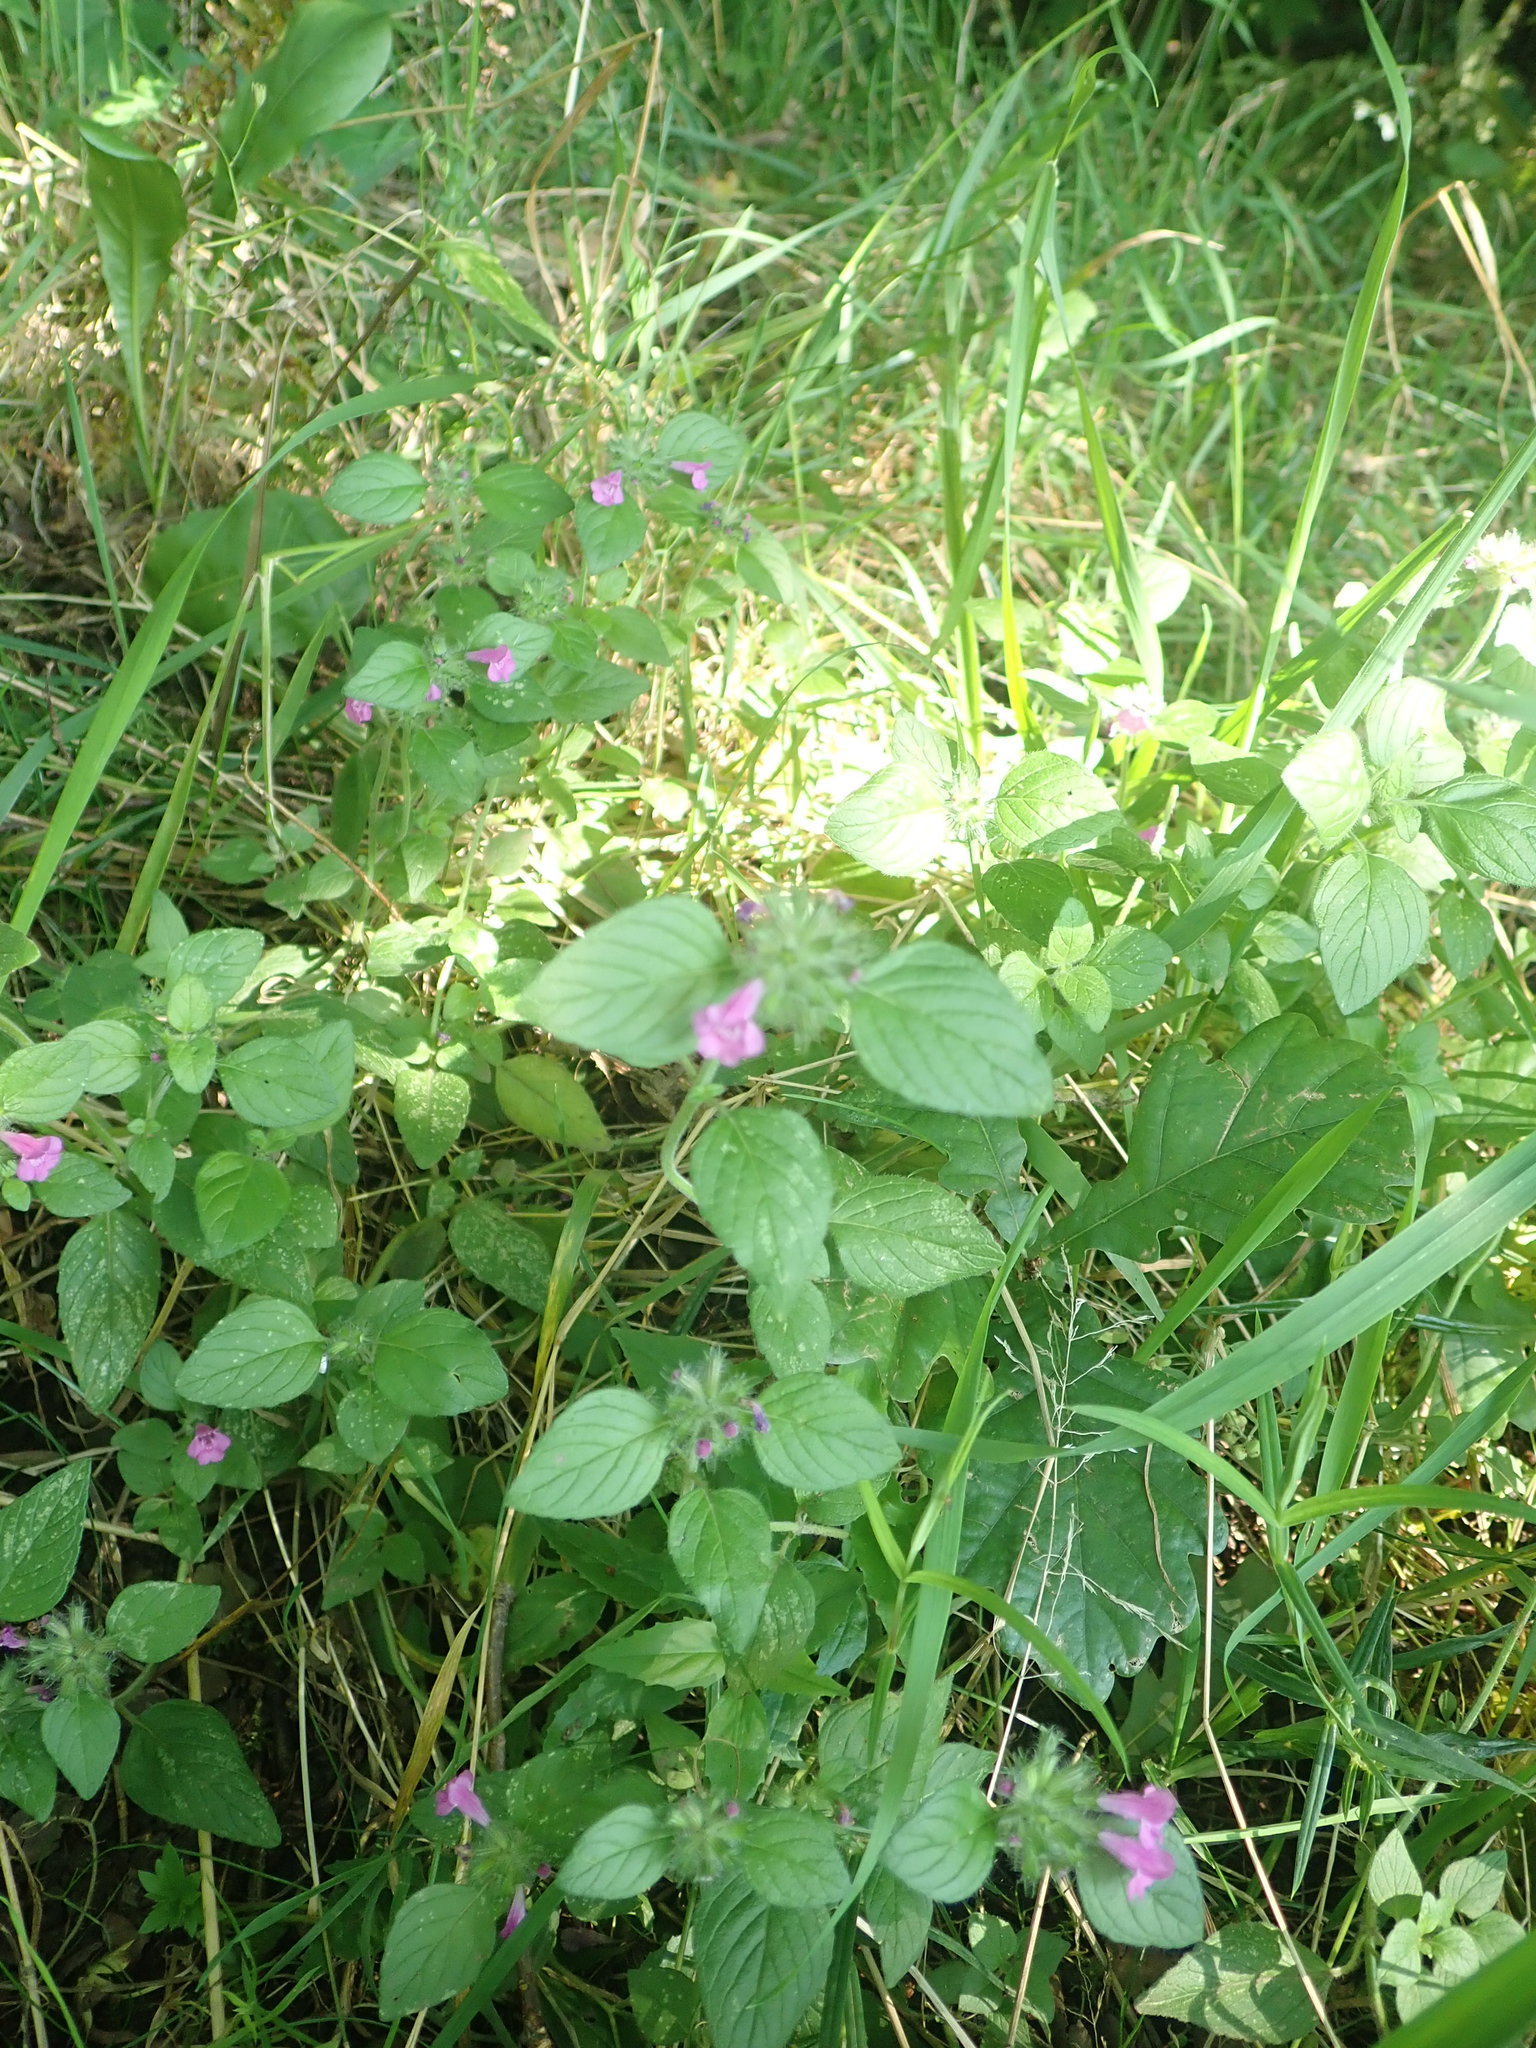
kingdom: Plantae
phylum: Tracheophyta
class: Magnoliopsida
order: Lamiales
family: Lamiaceae
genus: Clinopodium
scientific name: Clinopodium vulgare
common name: Wild basil
